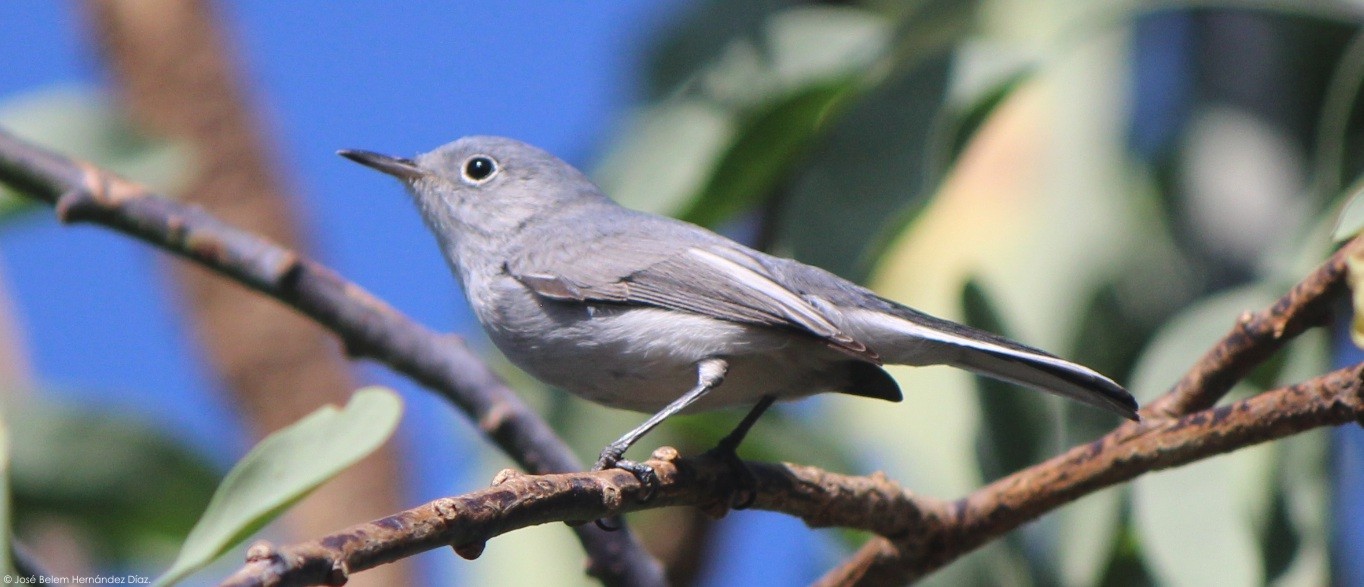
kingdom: Animalia
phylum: Chordata
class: Aves
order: Passeriformes
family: Polioptilidae
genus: Polioptila
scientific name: Polioptila caerulea
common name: Blue-gray gnatcatcher
